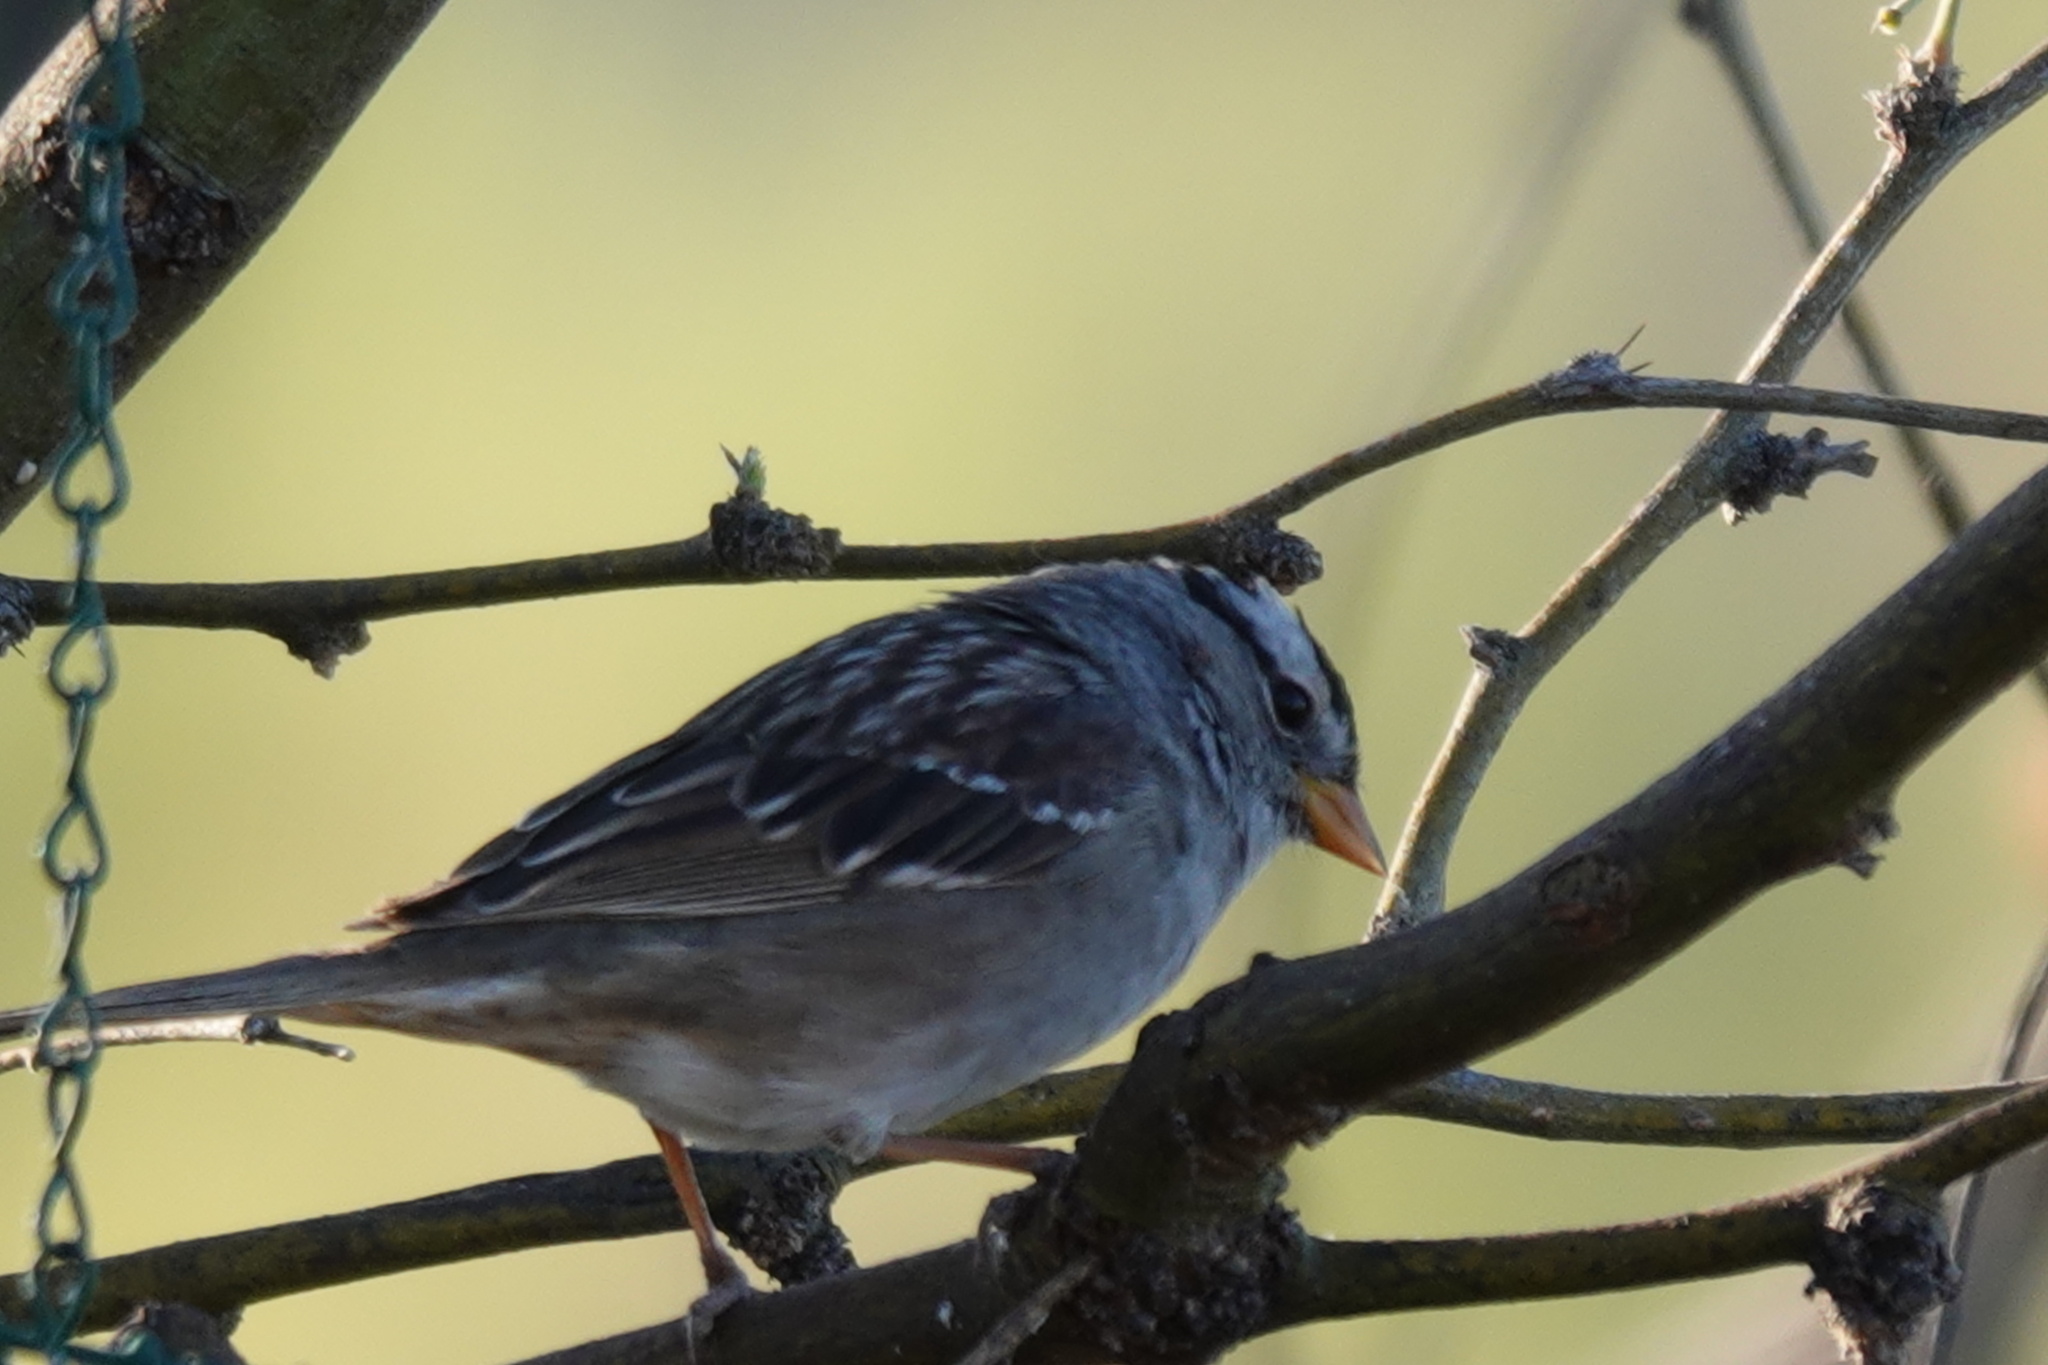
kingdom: Animalia
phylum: Chordata
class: Aves
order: Passeriformes
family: Passerellidae
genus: Zonotrichia
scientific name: Zonotrichia leucophrys
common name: White-crowned sparrow
